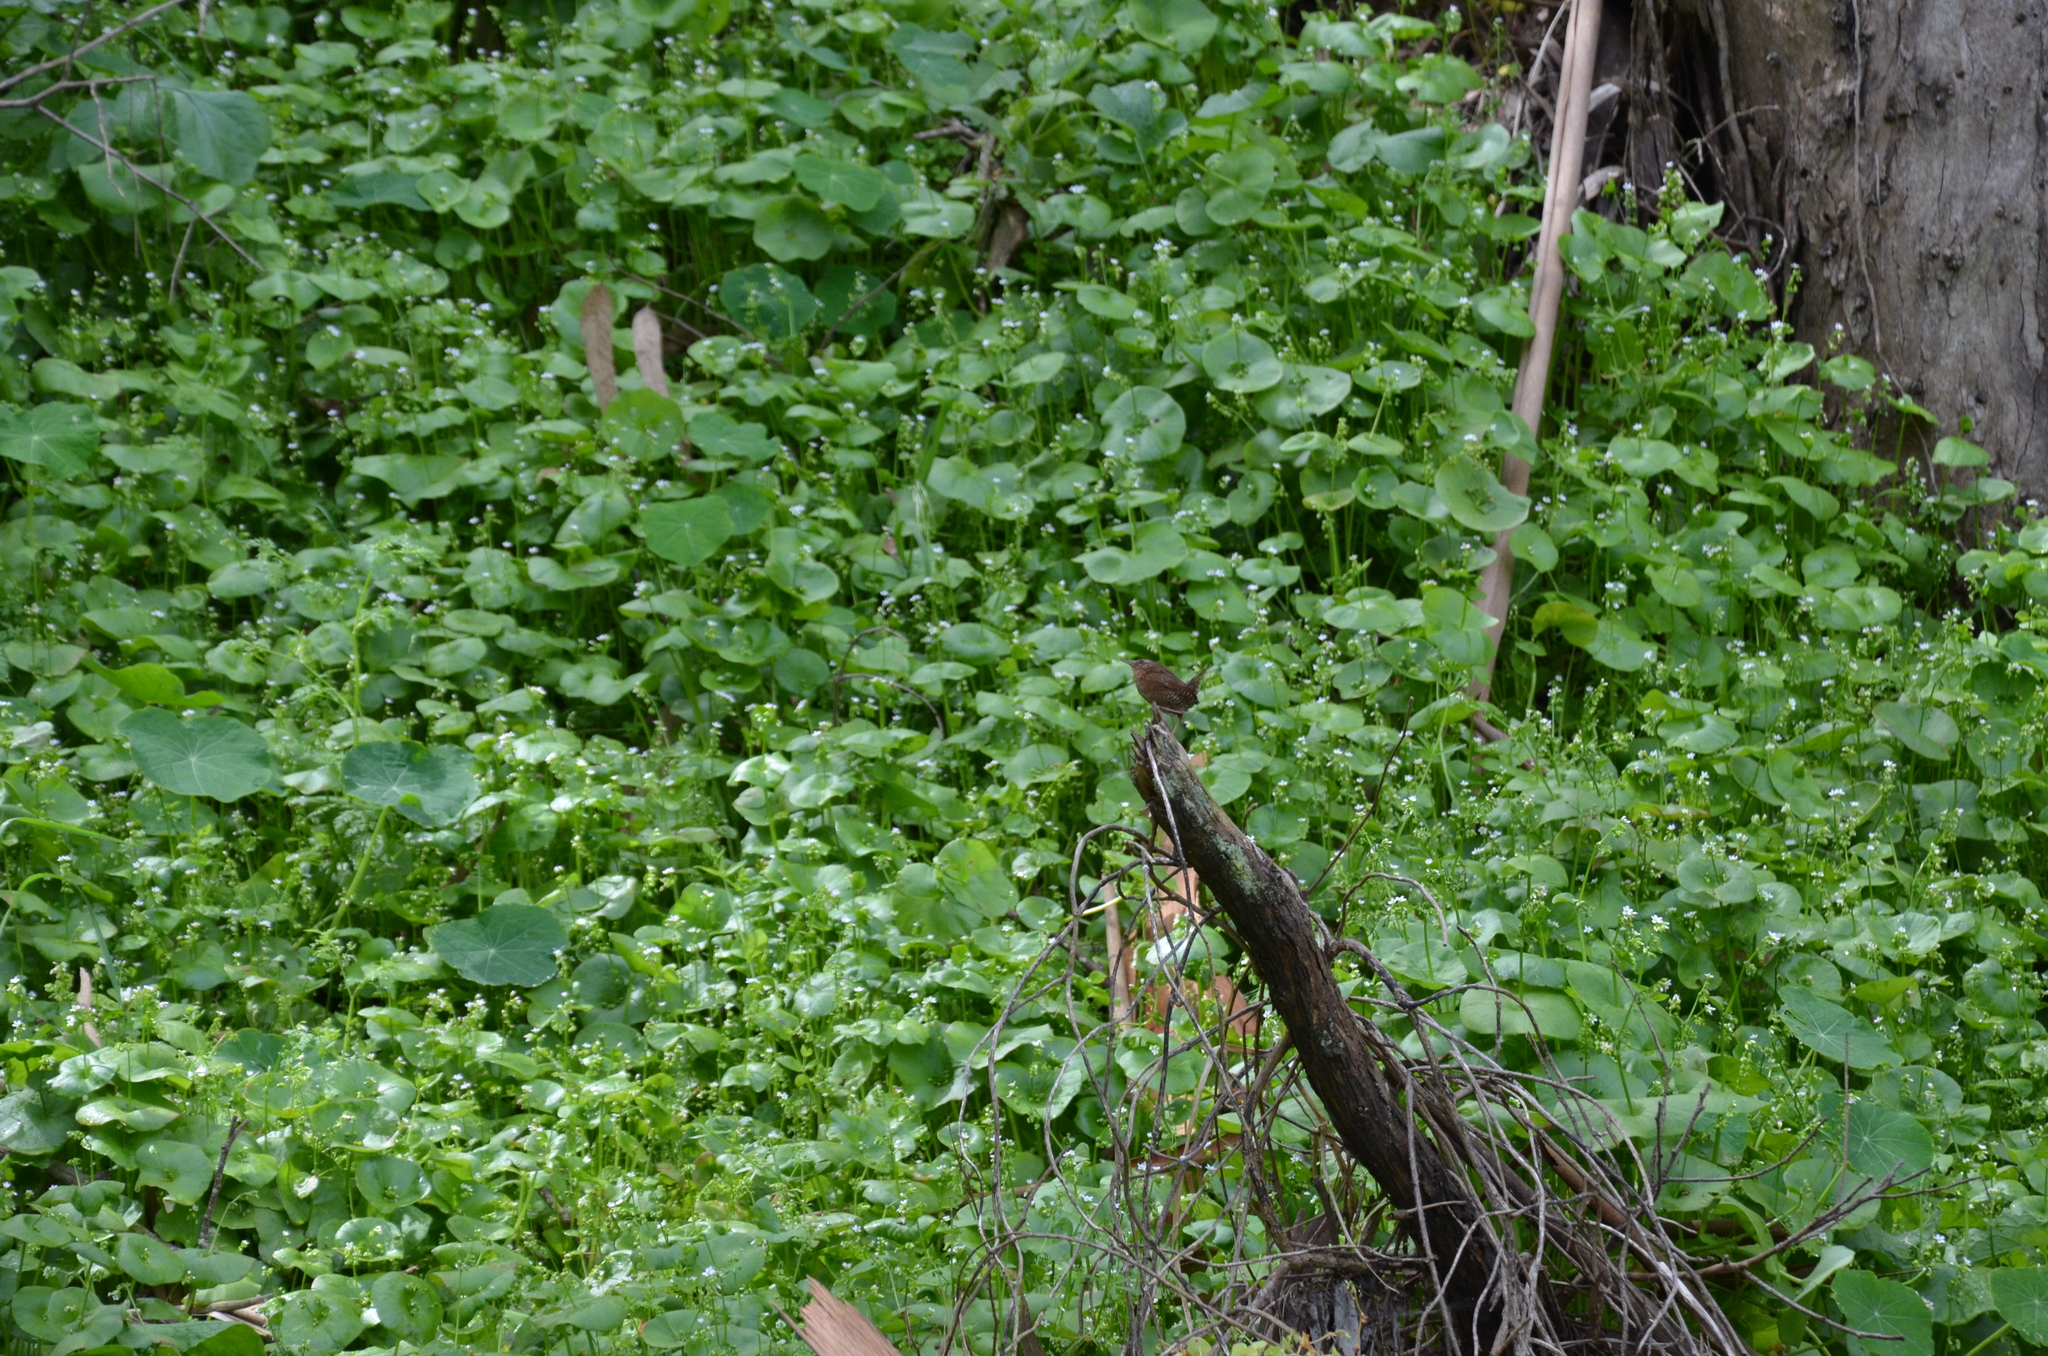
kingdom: Animalia
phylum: Chordata
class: Aves
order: Passeriformes
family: Troglodytidae
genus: Troglodytes
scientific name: Troglodytes pacificus
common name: Pacific wren
